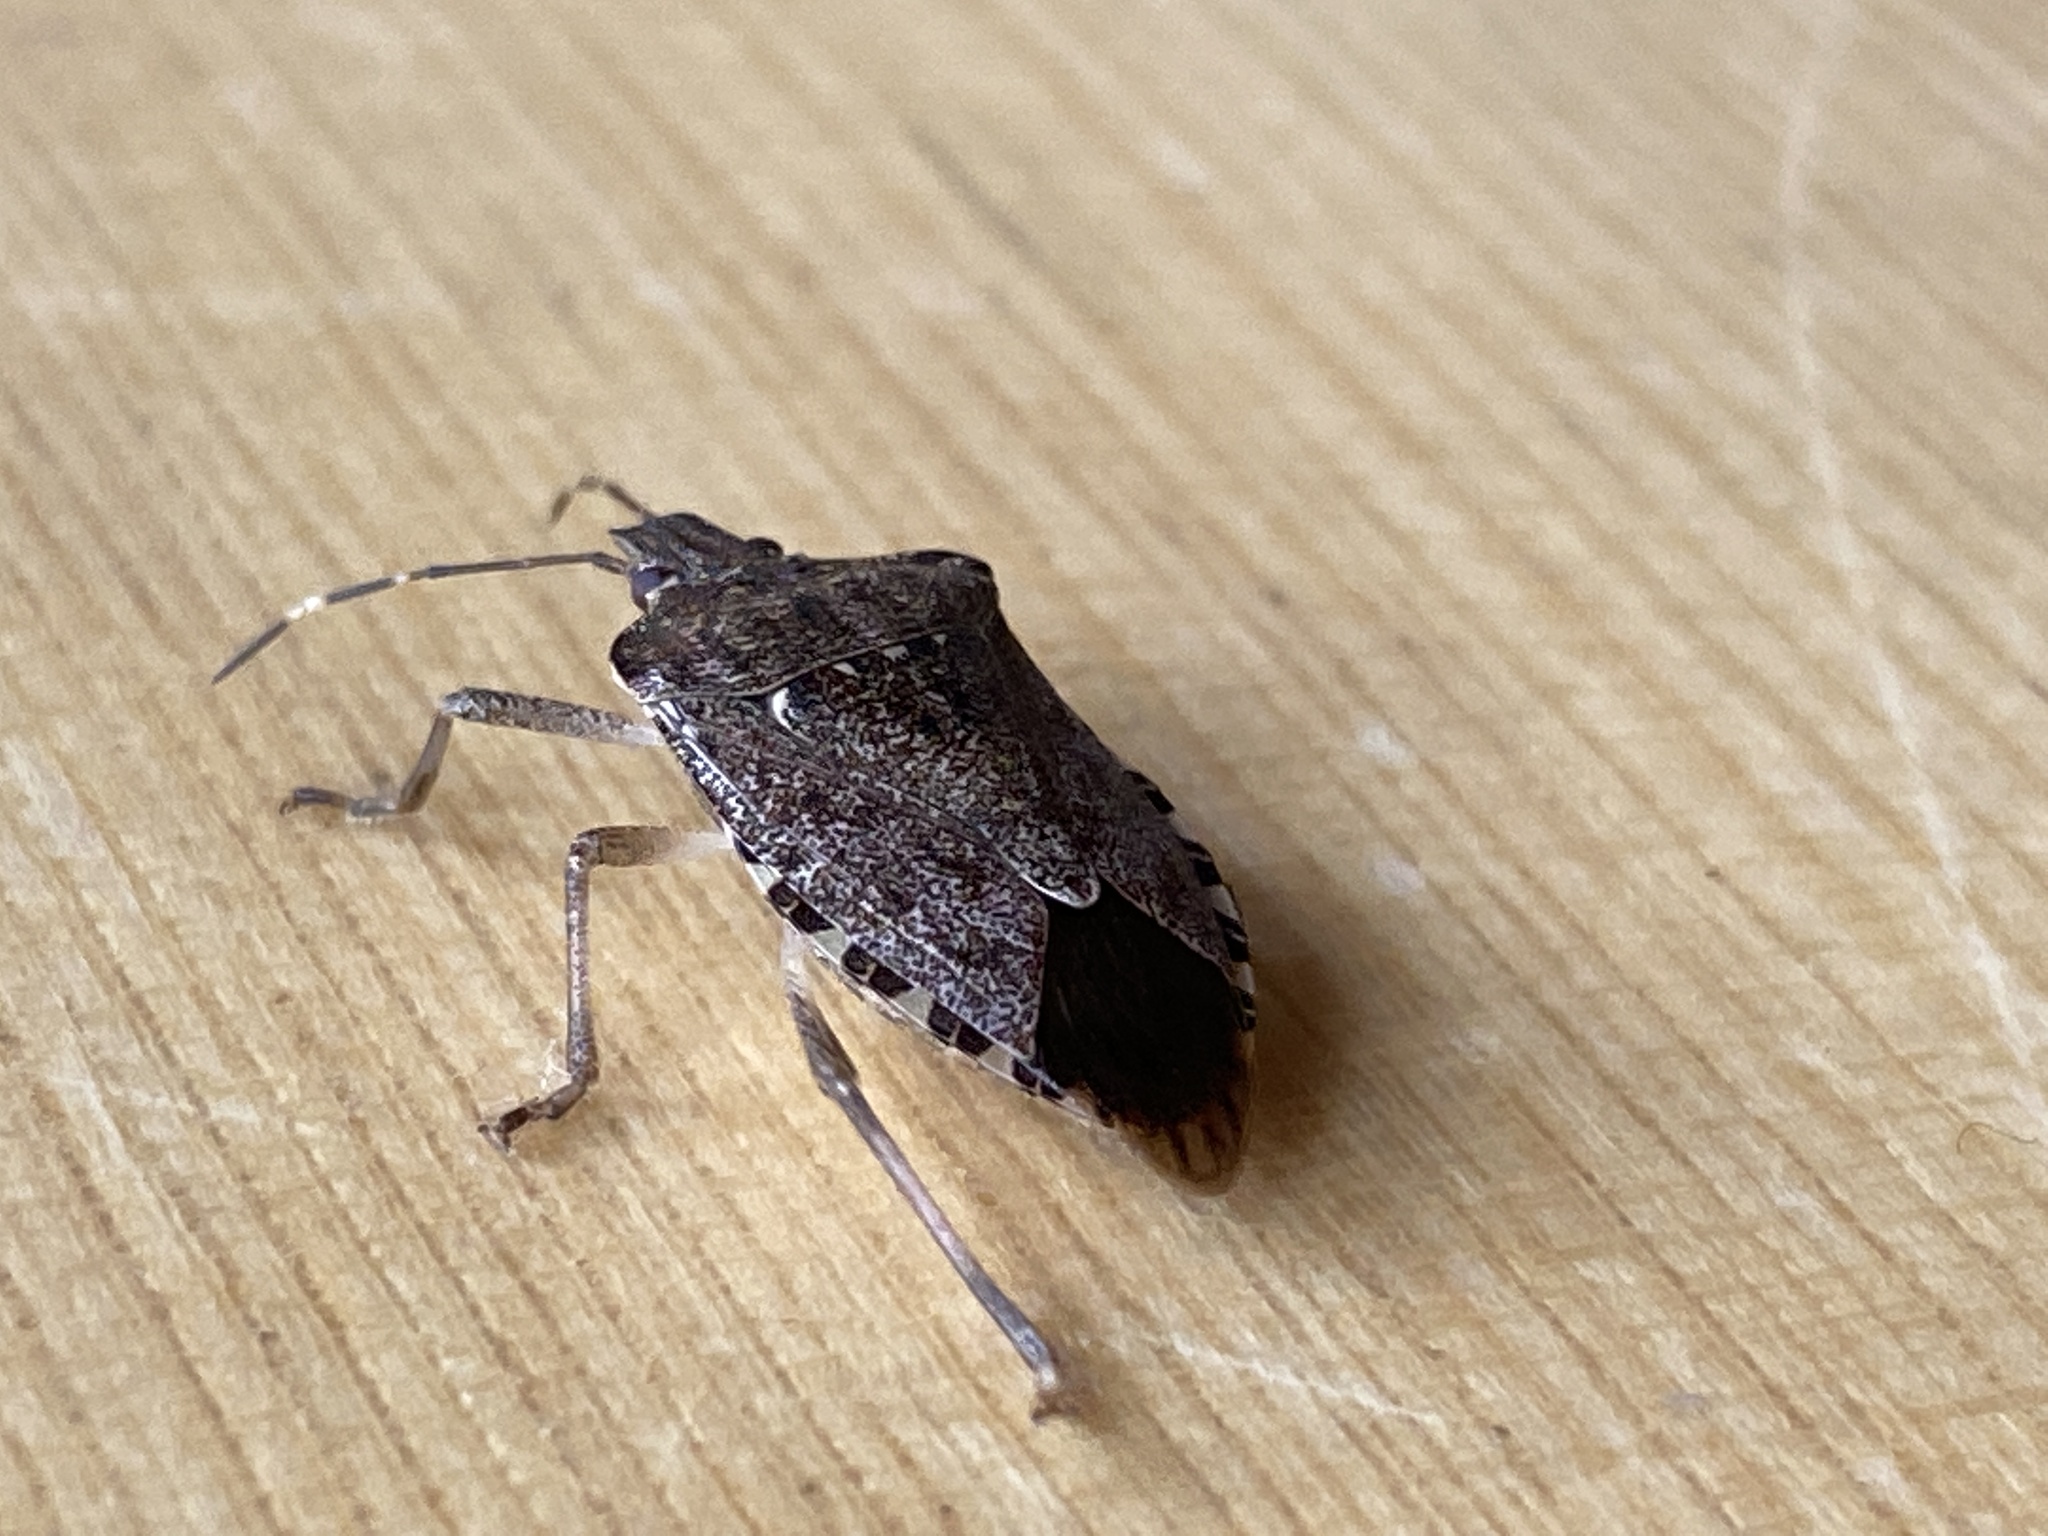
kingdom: Animalia
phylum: Arthropoda
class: Insecta
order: Hemiptera
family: Pentatomidae
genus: Halyomorpha
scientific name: Halyomorpha halys
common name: Brown marmorated stink bug
